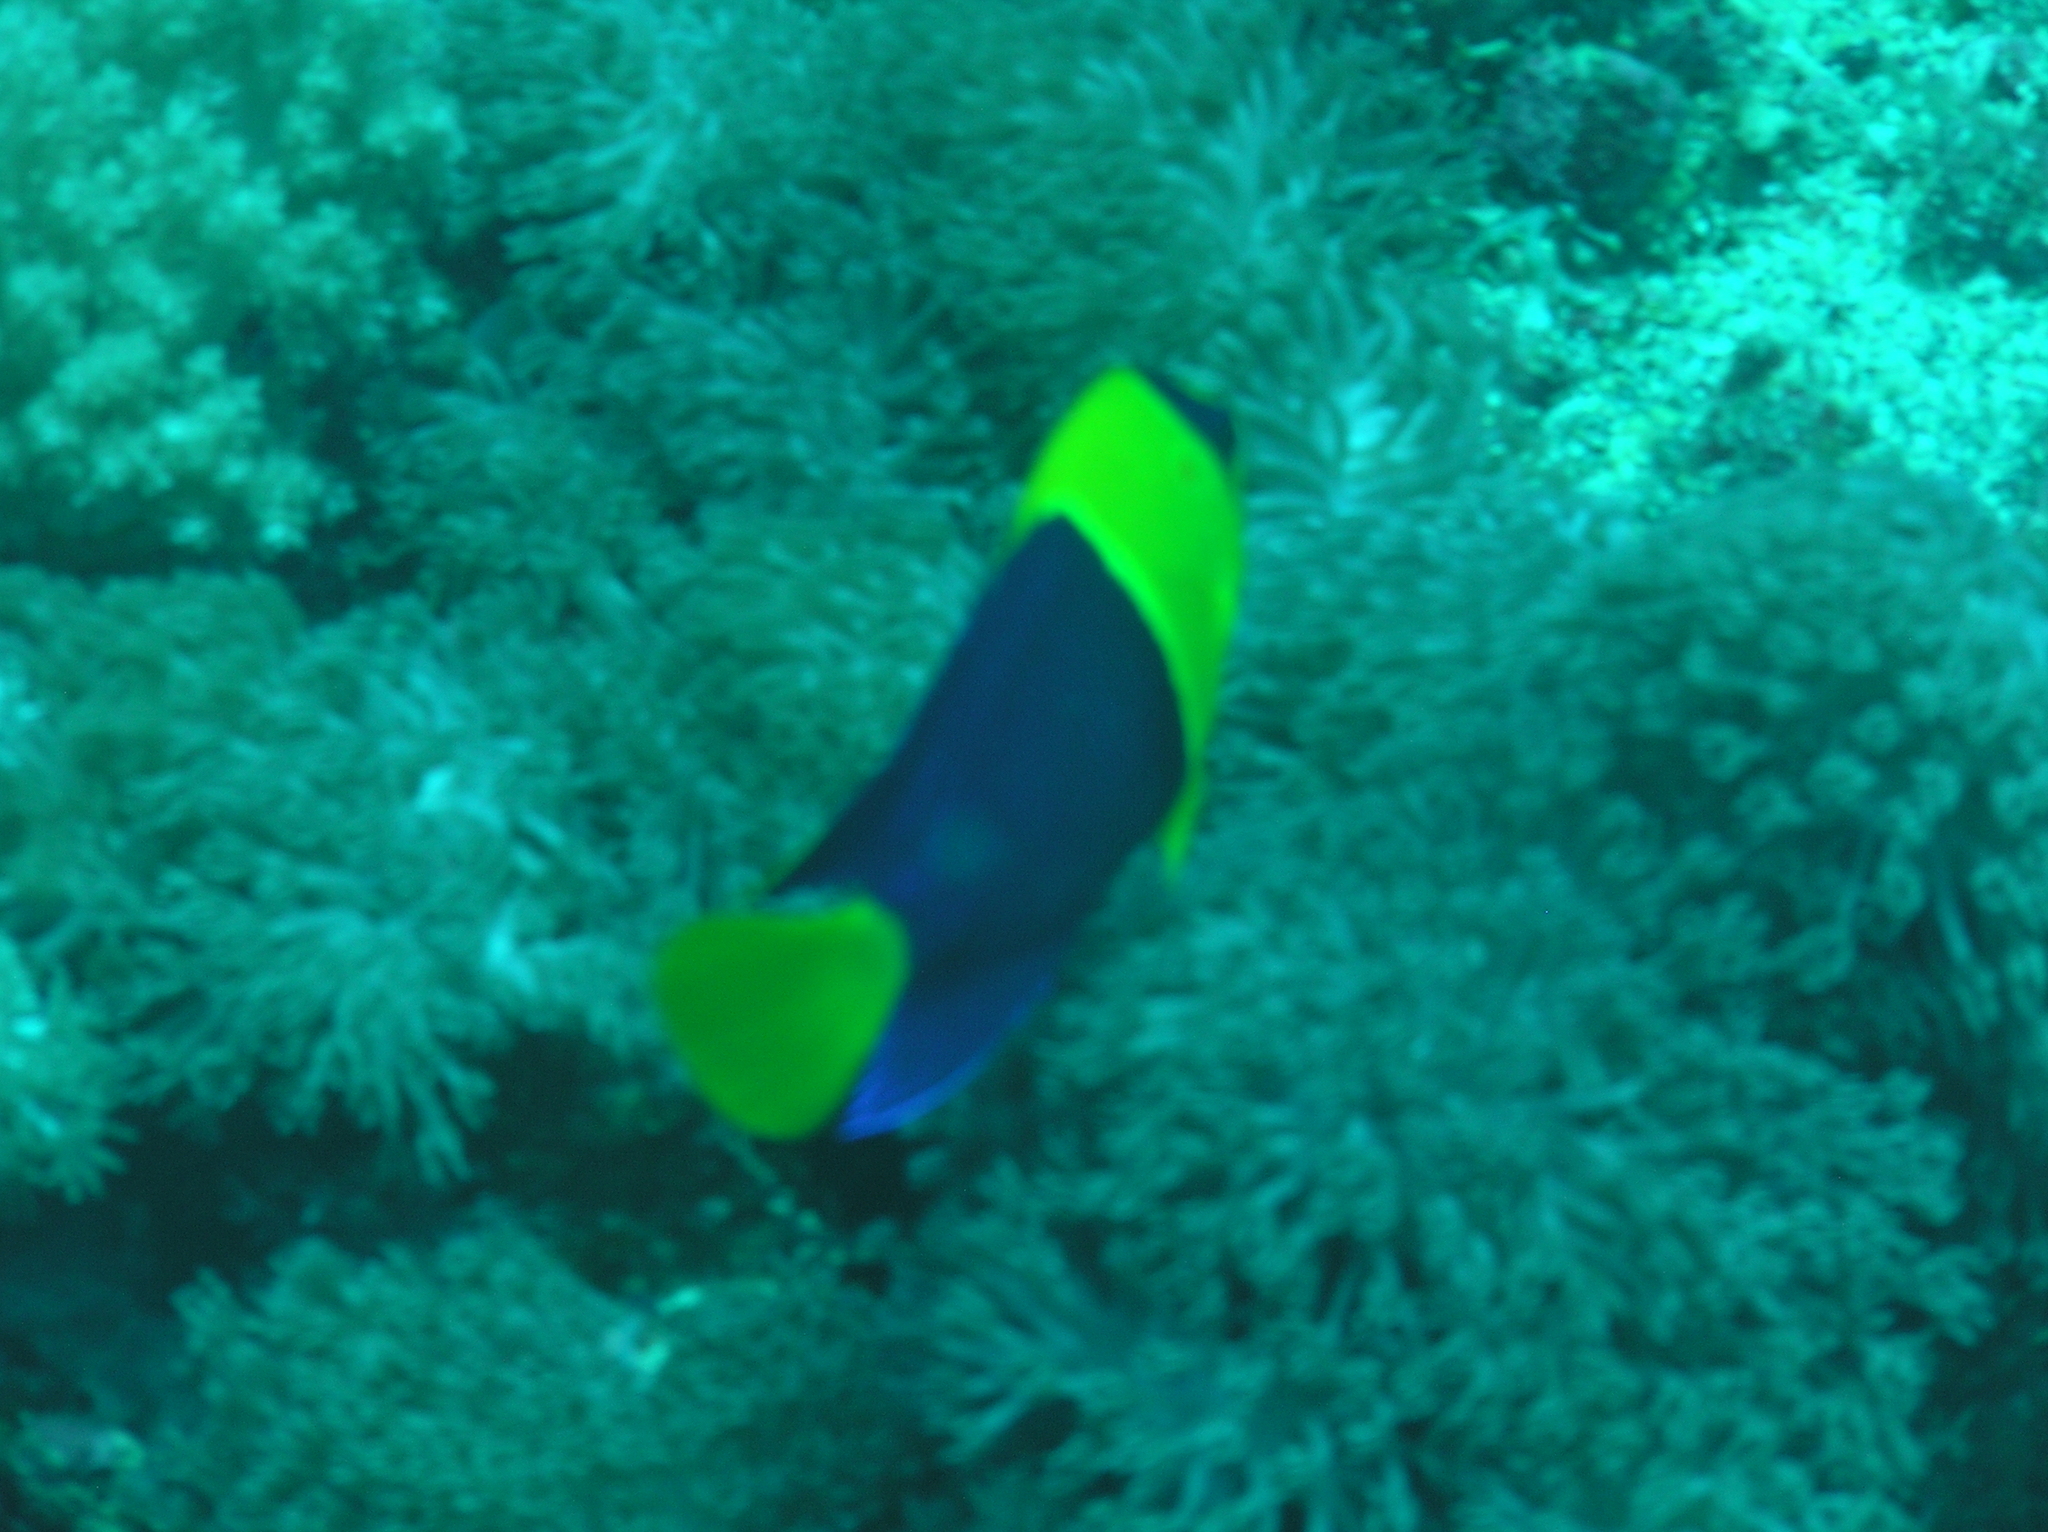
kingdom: Animalia
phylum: Chordata
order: Perciformes
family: Pomacanthidae
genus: Centropyge
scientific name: Centropyge bicolor
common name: Bicolor angelfish
